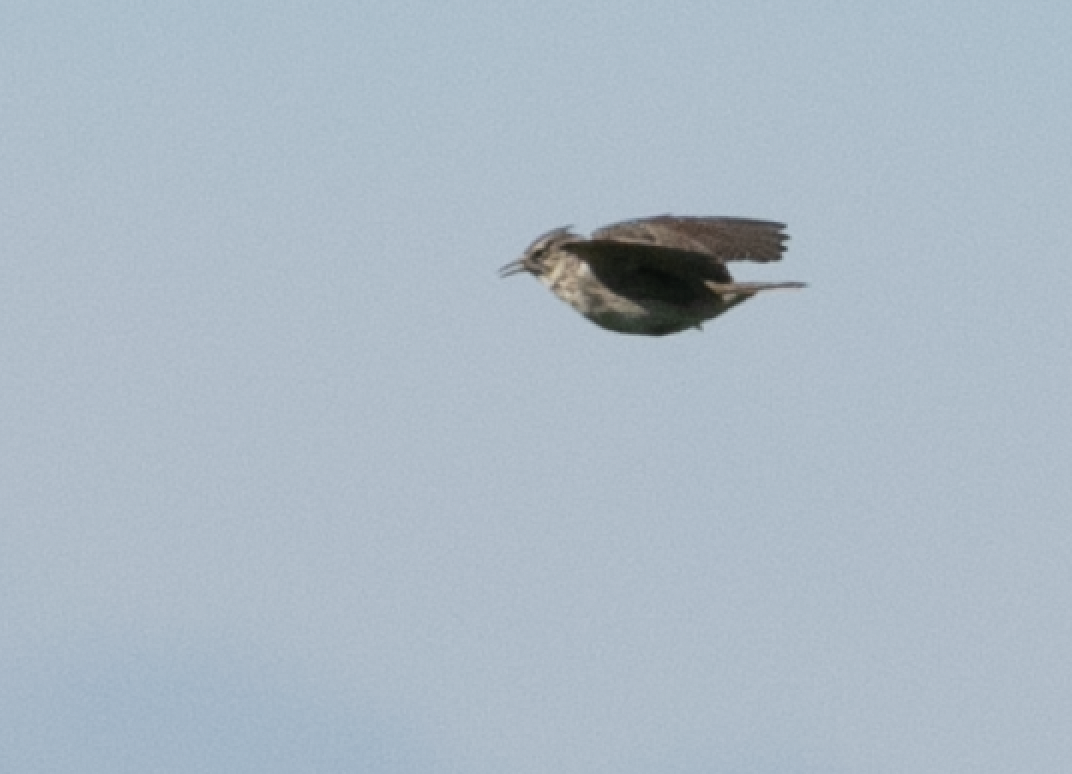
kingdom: Animalia
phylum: Chordata
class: Aves
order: Passeriformes
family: Alaudidae
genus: Galerida
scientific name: Galerida cristata
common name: Crested lark
